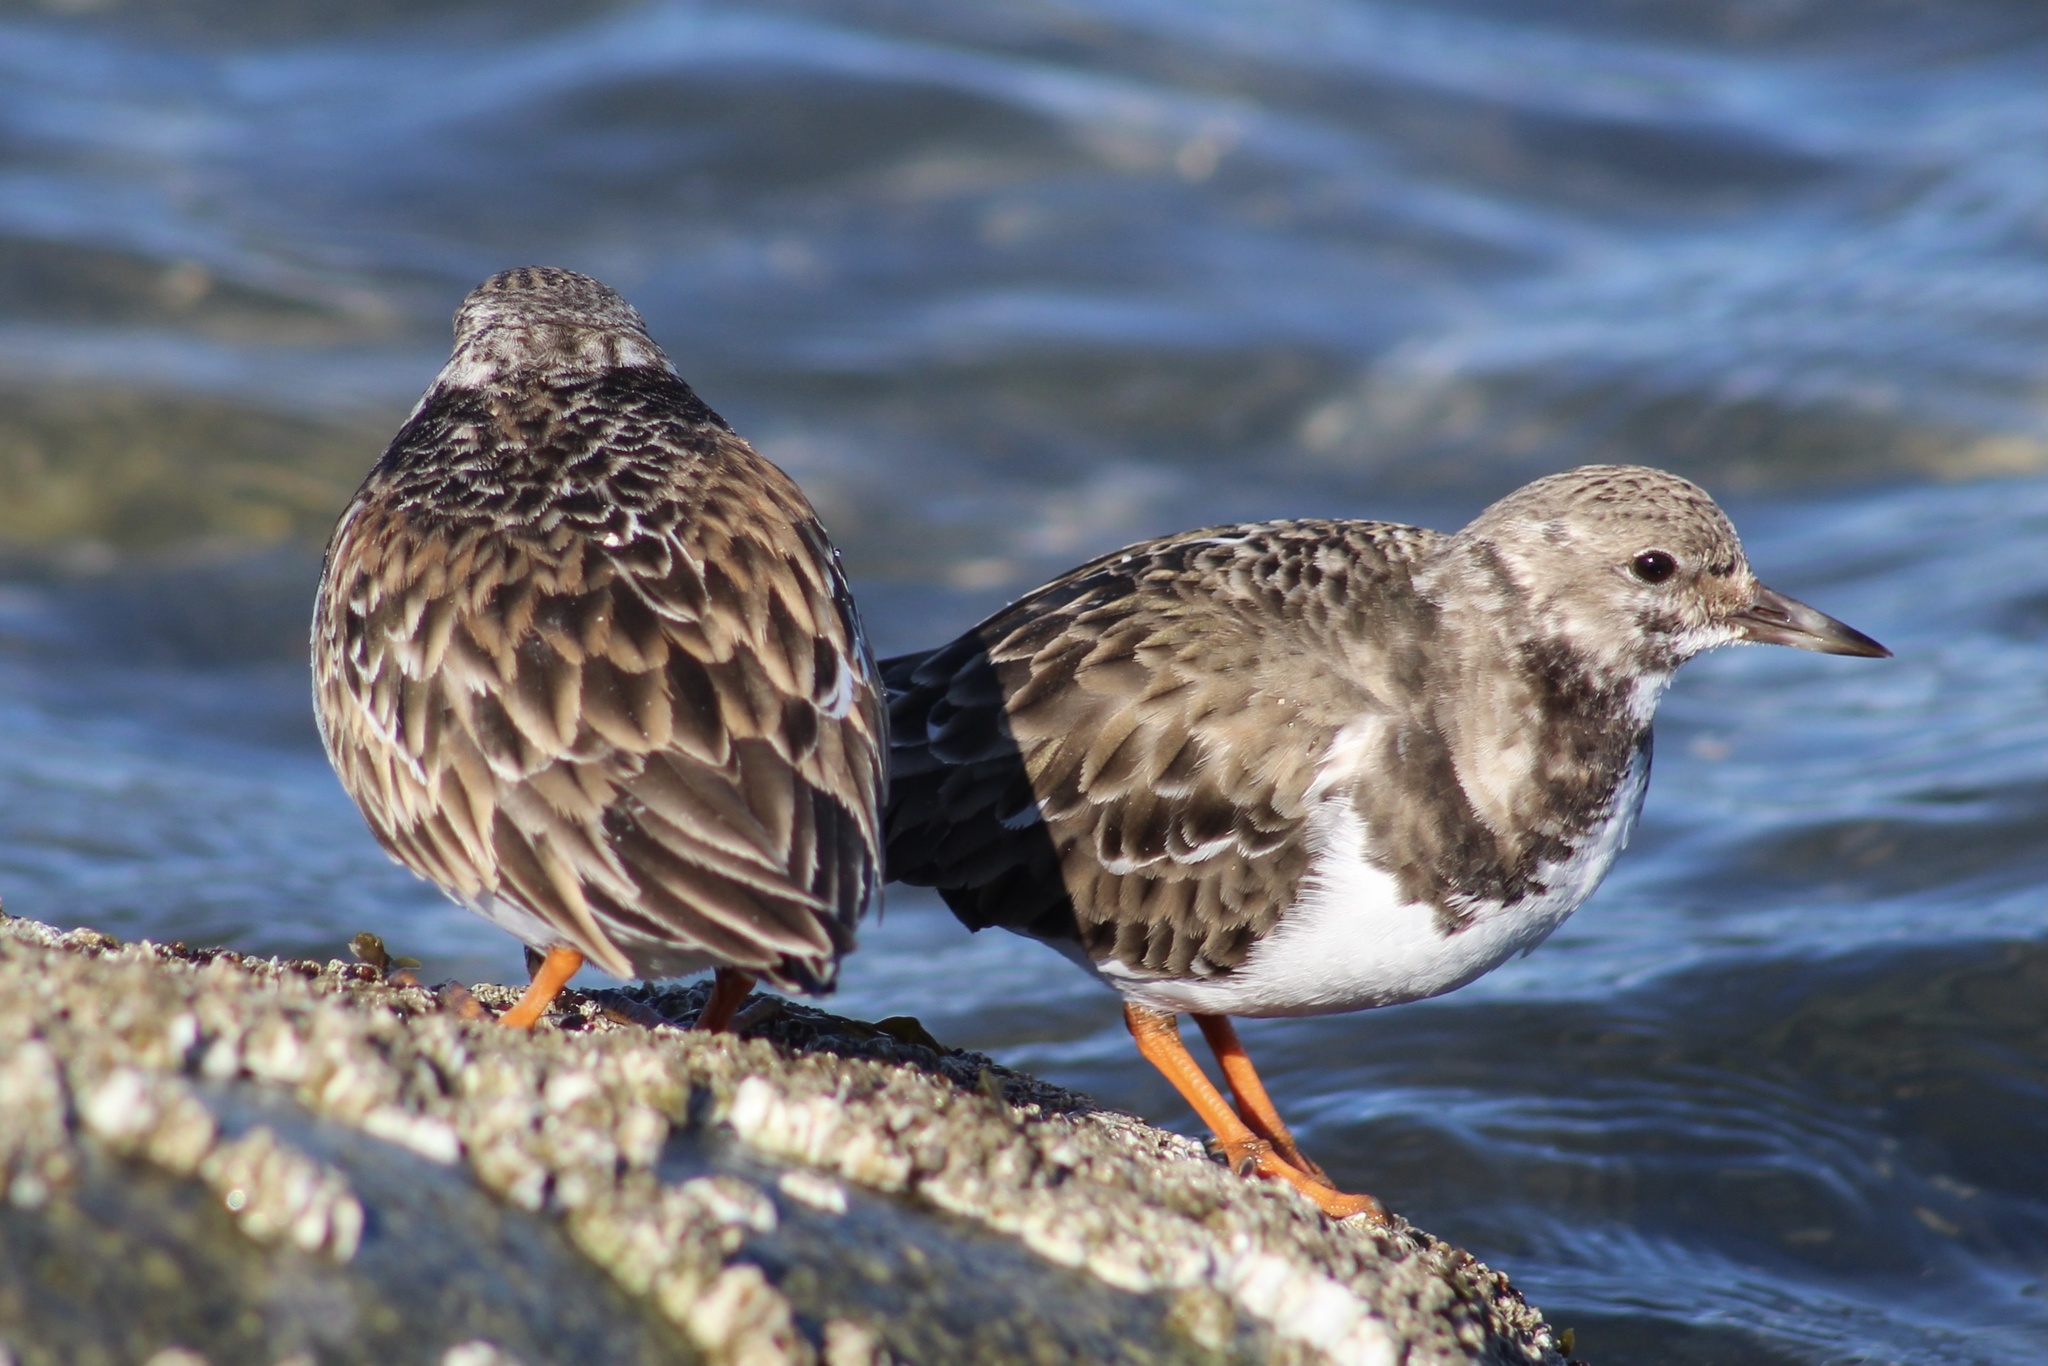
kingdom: Animalia
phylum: Chordata
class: Aves
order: Charadriiformes
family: Scolopacidae
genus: Arenaria
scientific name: Arenaria interpres
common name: Ruddy turnstone
